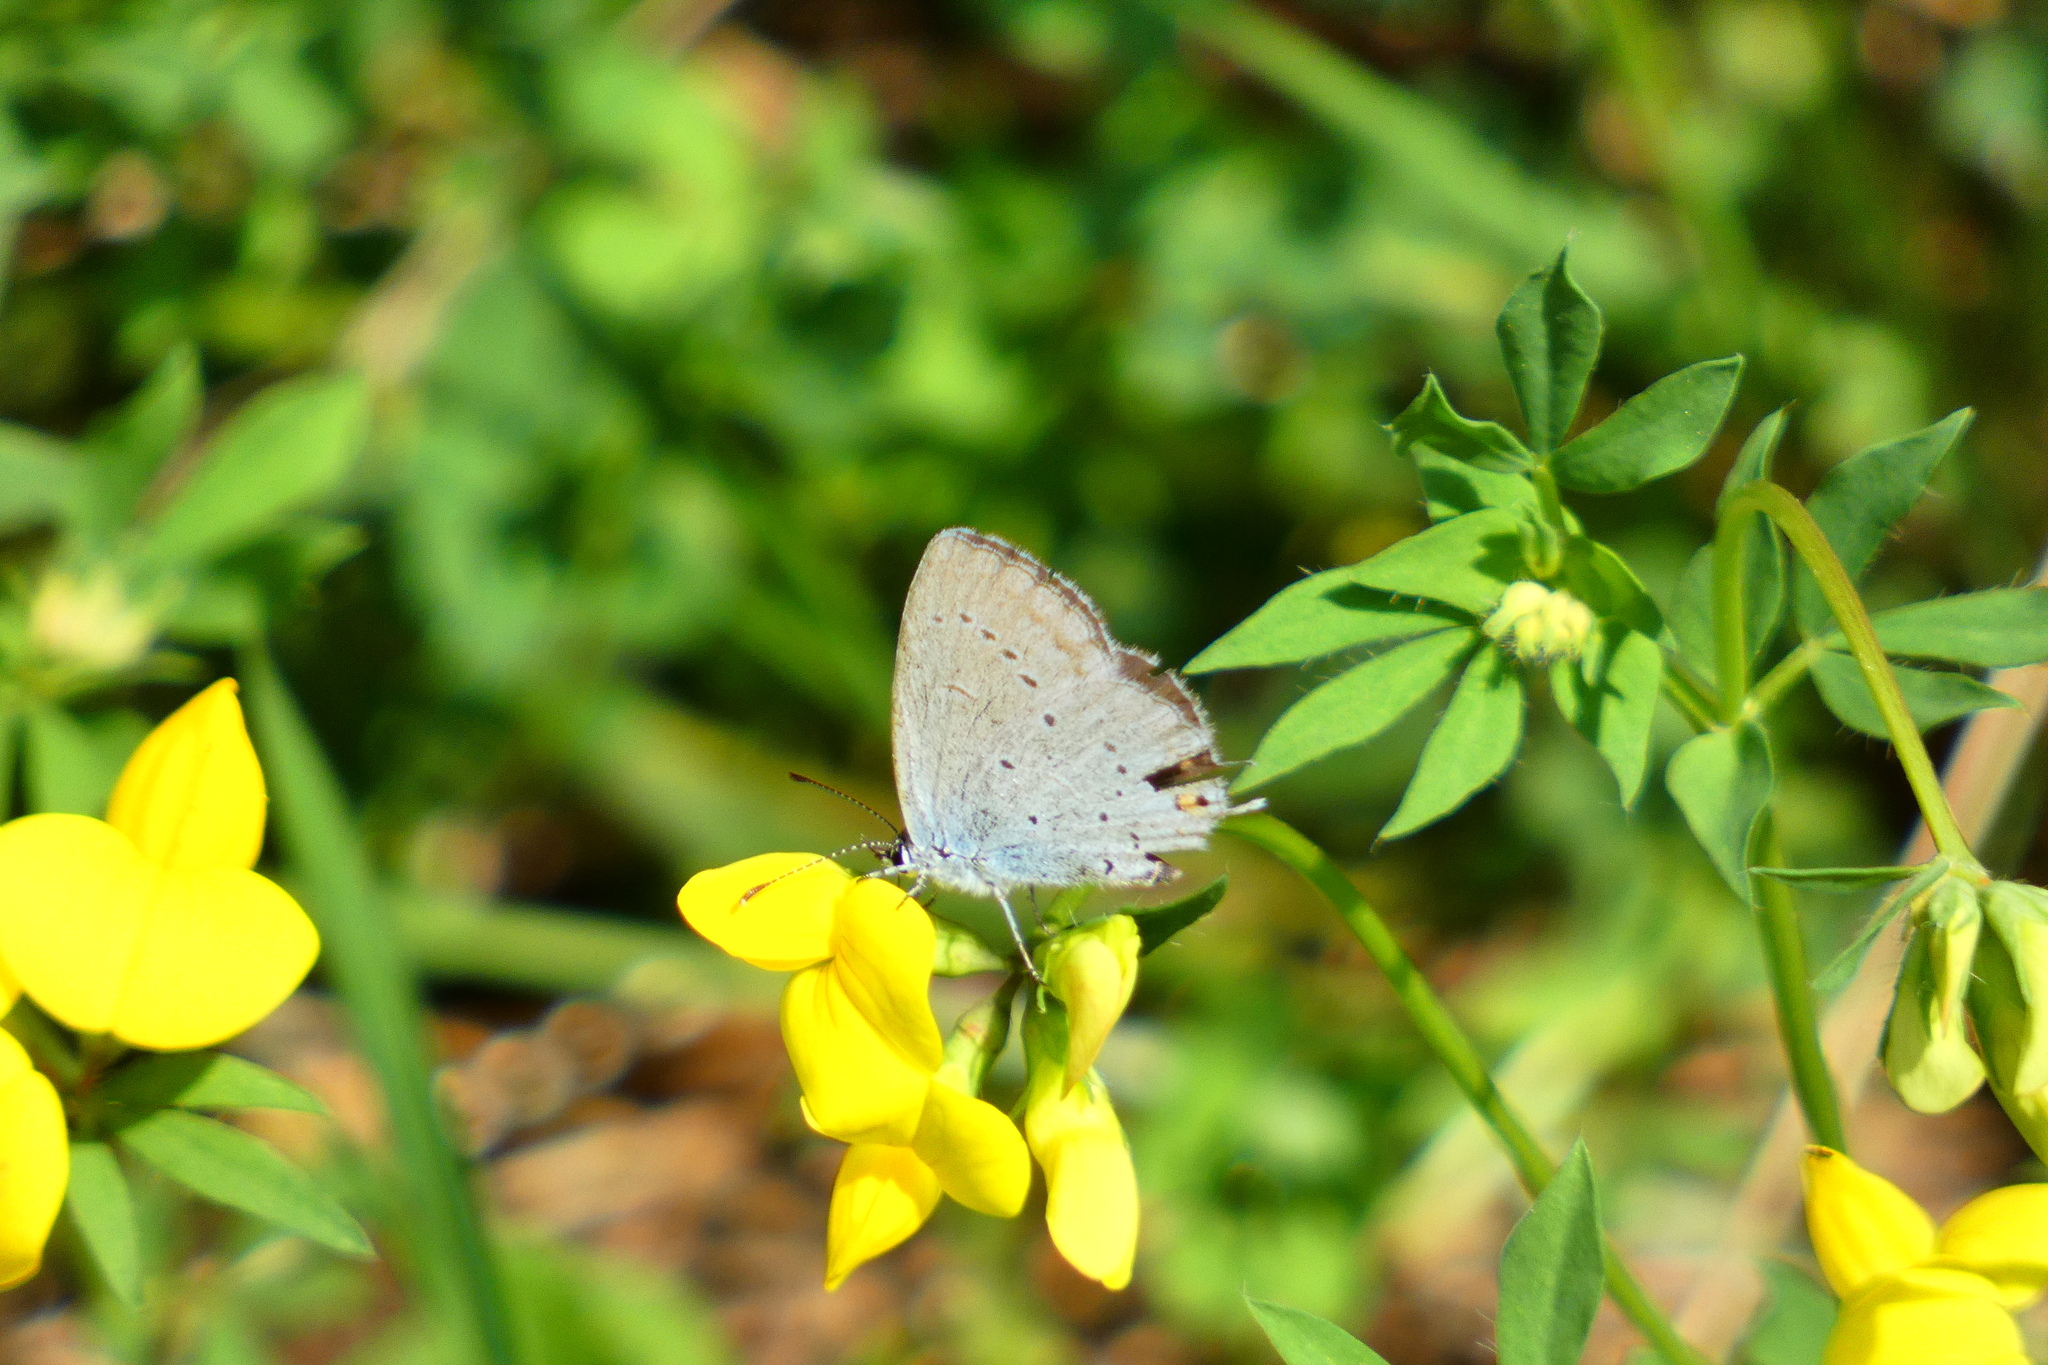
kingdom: Animalia
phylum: Arthropoda
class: Insecta
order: Lepidoptera
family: Lycaenidae
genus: Elkalyce
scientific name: Elkalyce argiades
